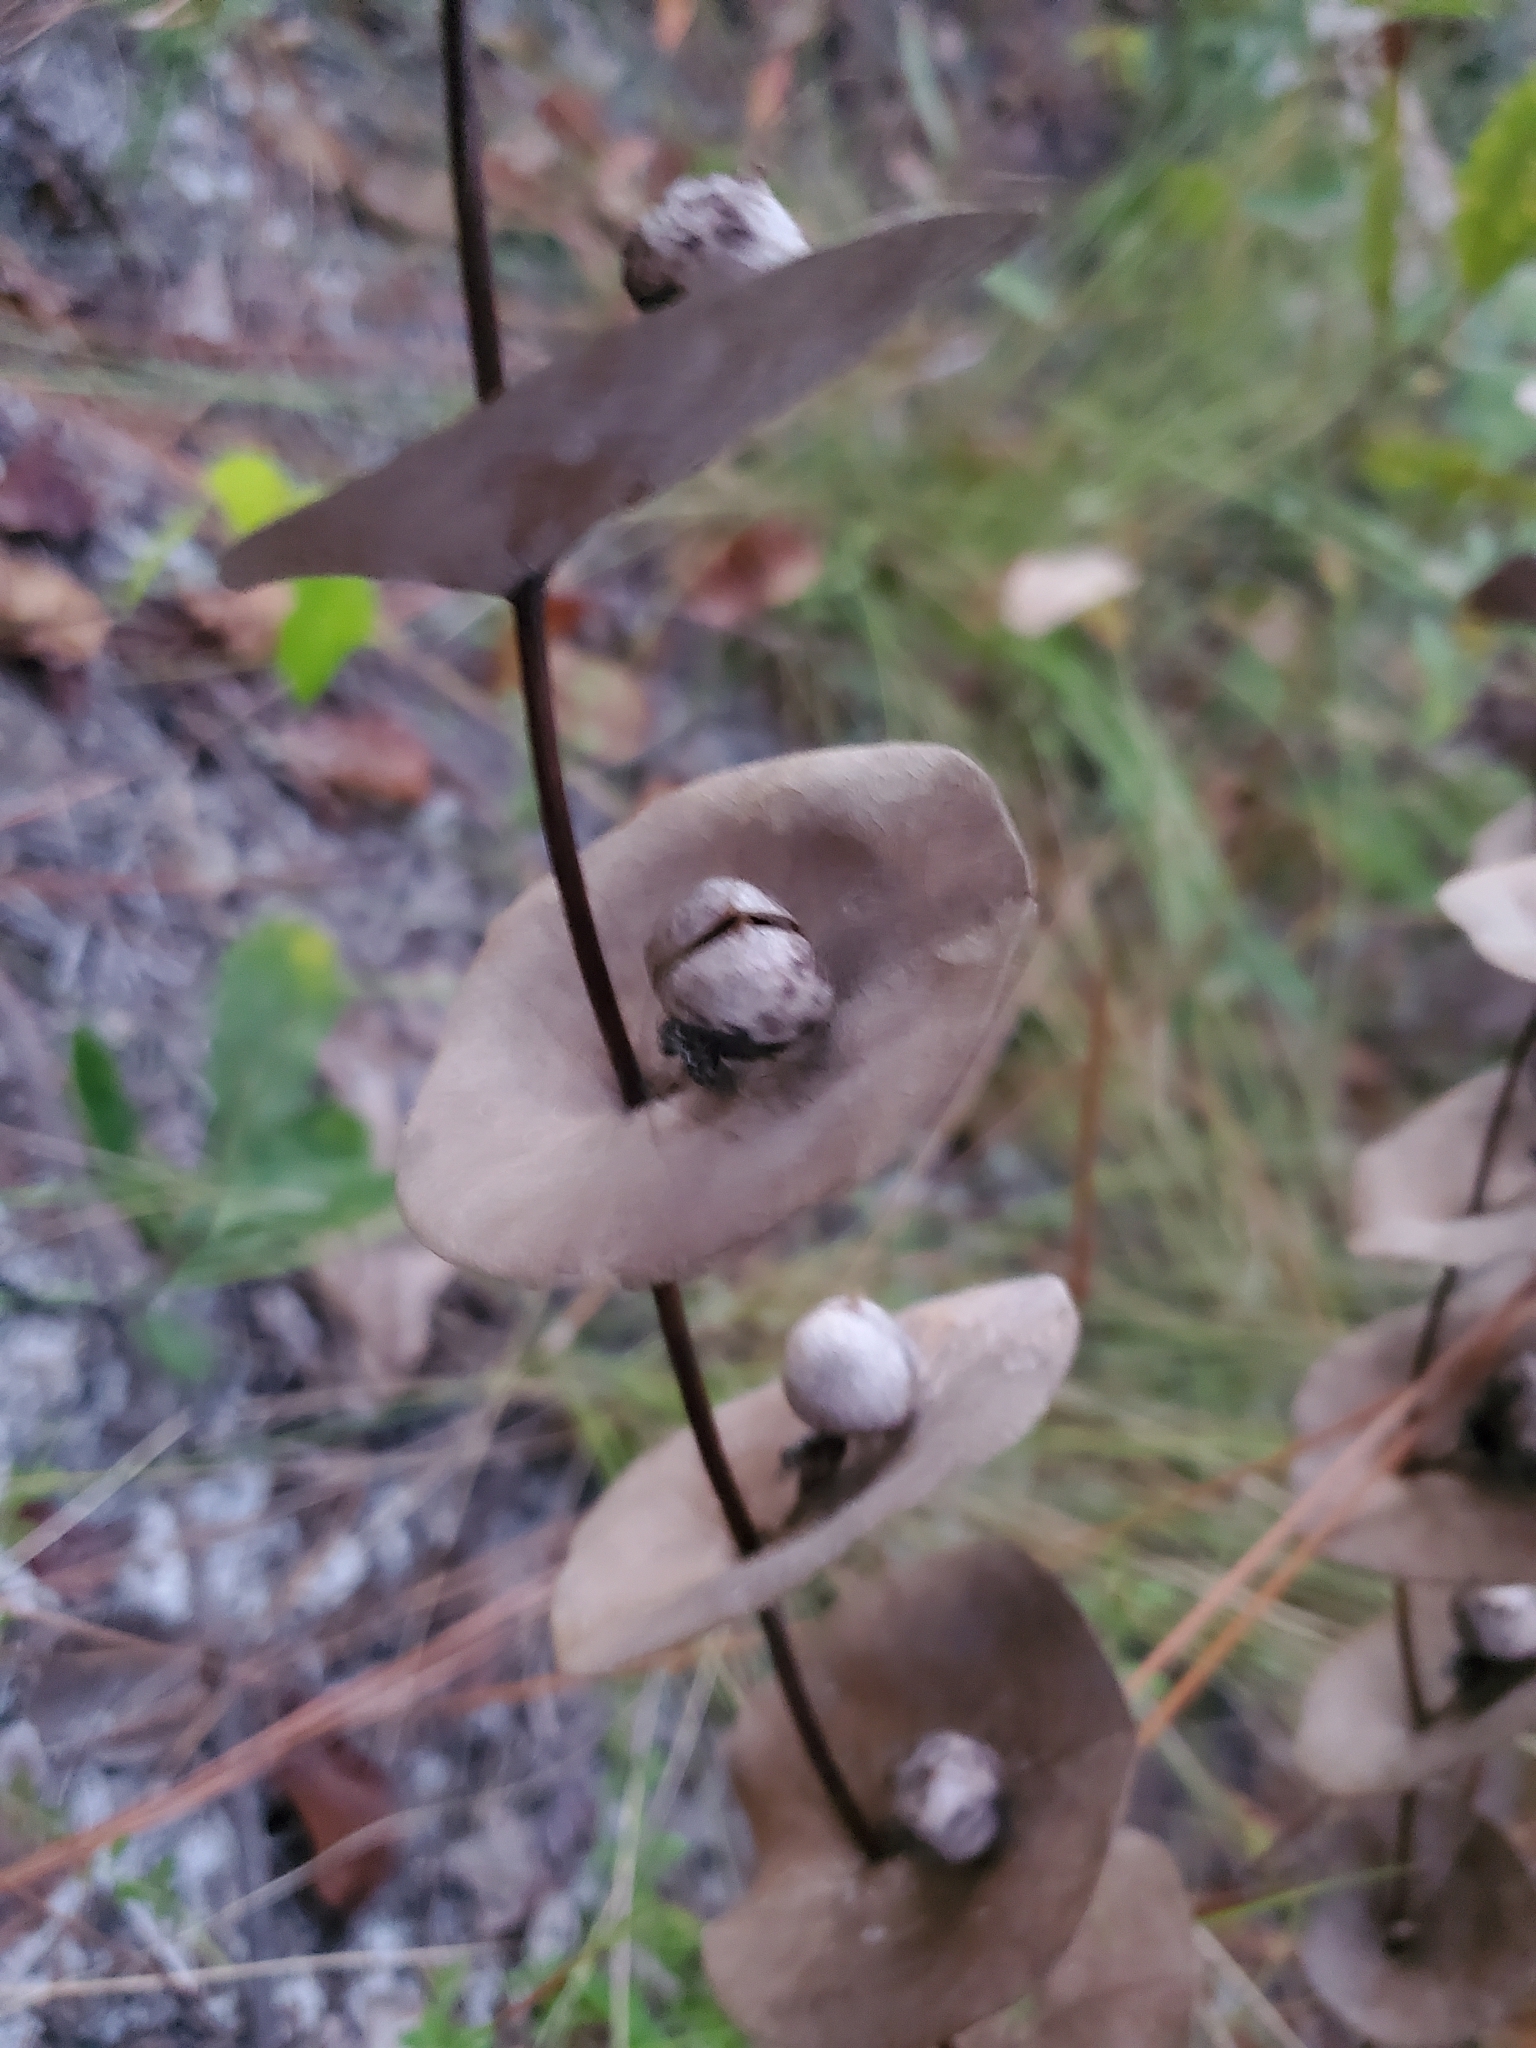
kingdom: Plantae
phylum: Tracheophyta
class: Magnoliopsida
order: Fabales
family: Fabaceae
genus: Baptisia
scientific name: Baptisia perfoliata
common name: Catbells
